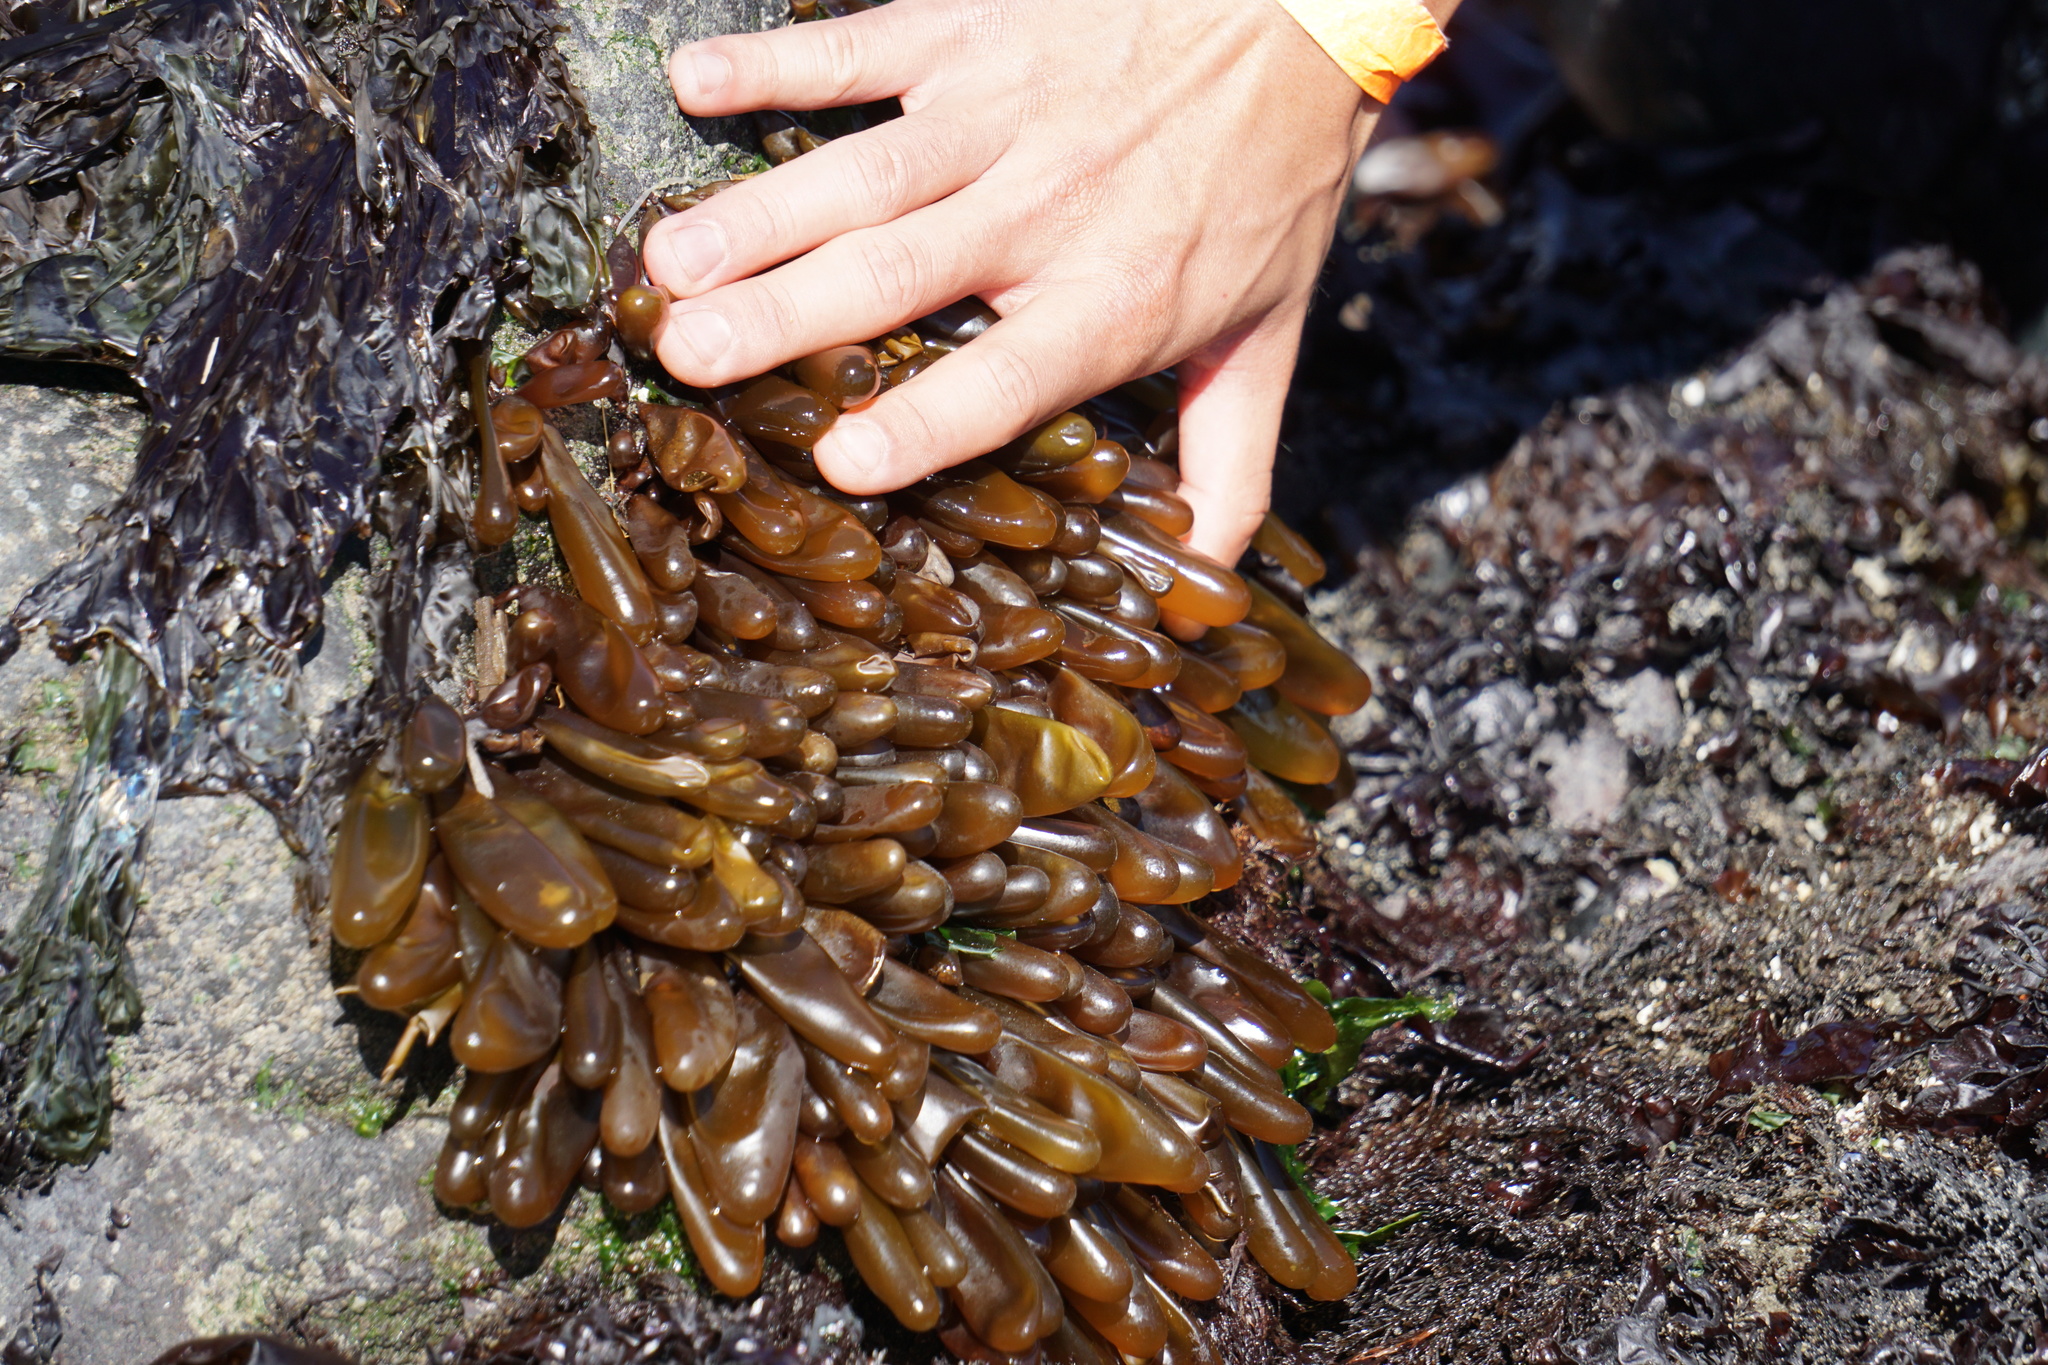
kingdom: Plantae
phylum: Rhodophyta
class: Florideophyceae
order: Palmariales
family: Palmariaceae
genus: Halosaccion
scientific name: Halosaccion glandiforme
